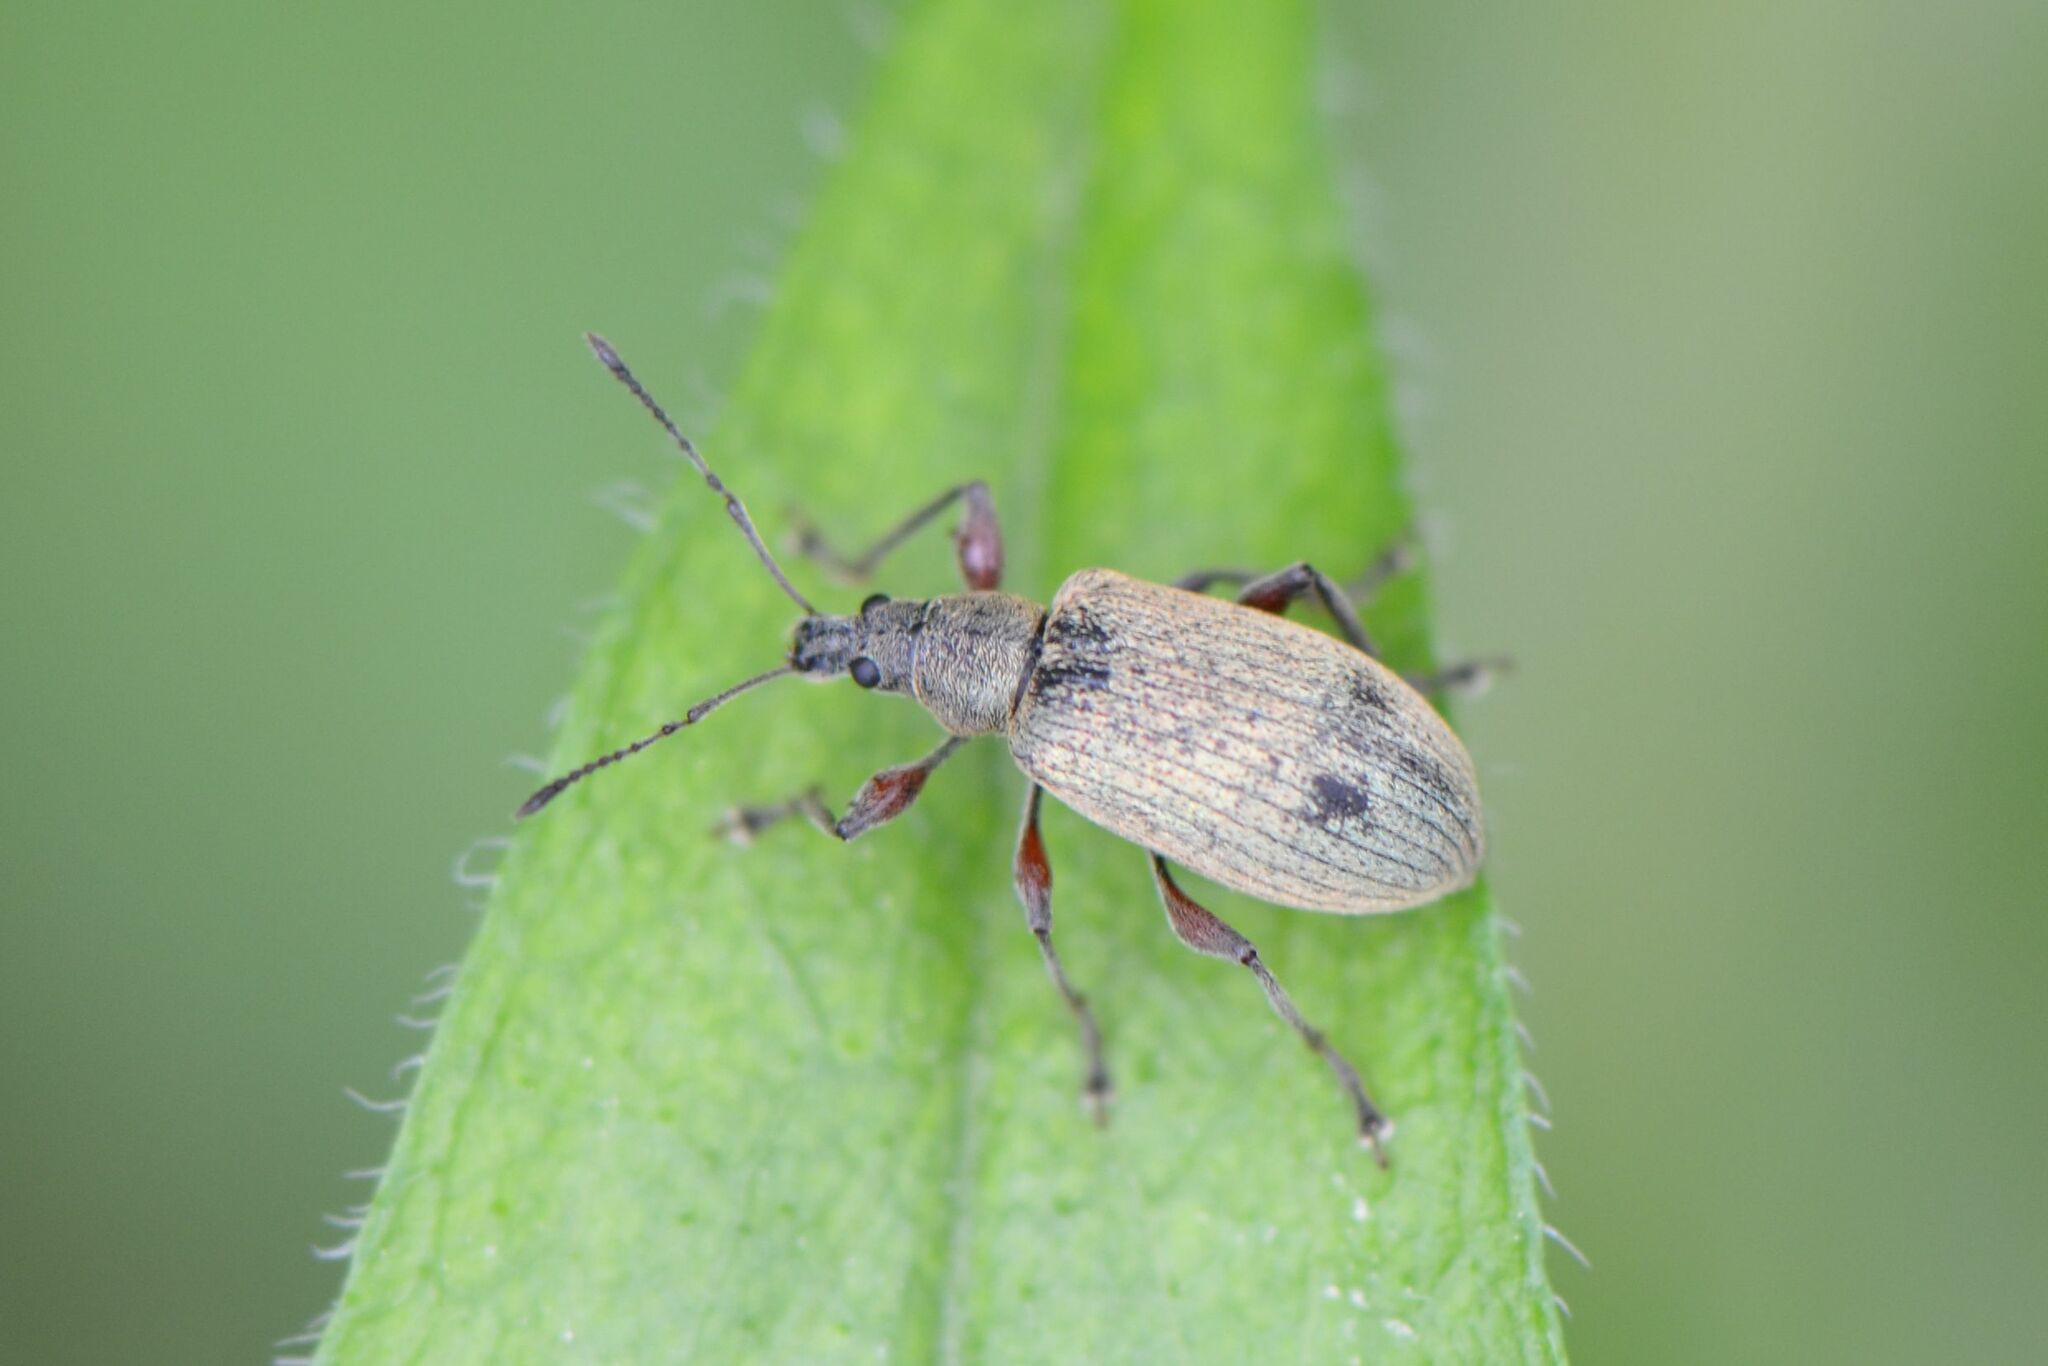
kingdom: Animalia
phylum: Arthropoda
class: Insecta
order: Coleoptera
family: Curculionidae
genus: Phyllobius
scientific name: Phyllobius glaucus
